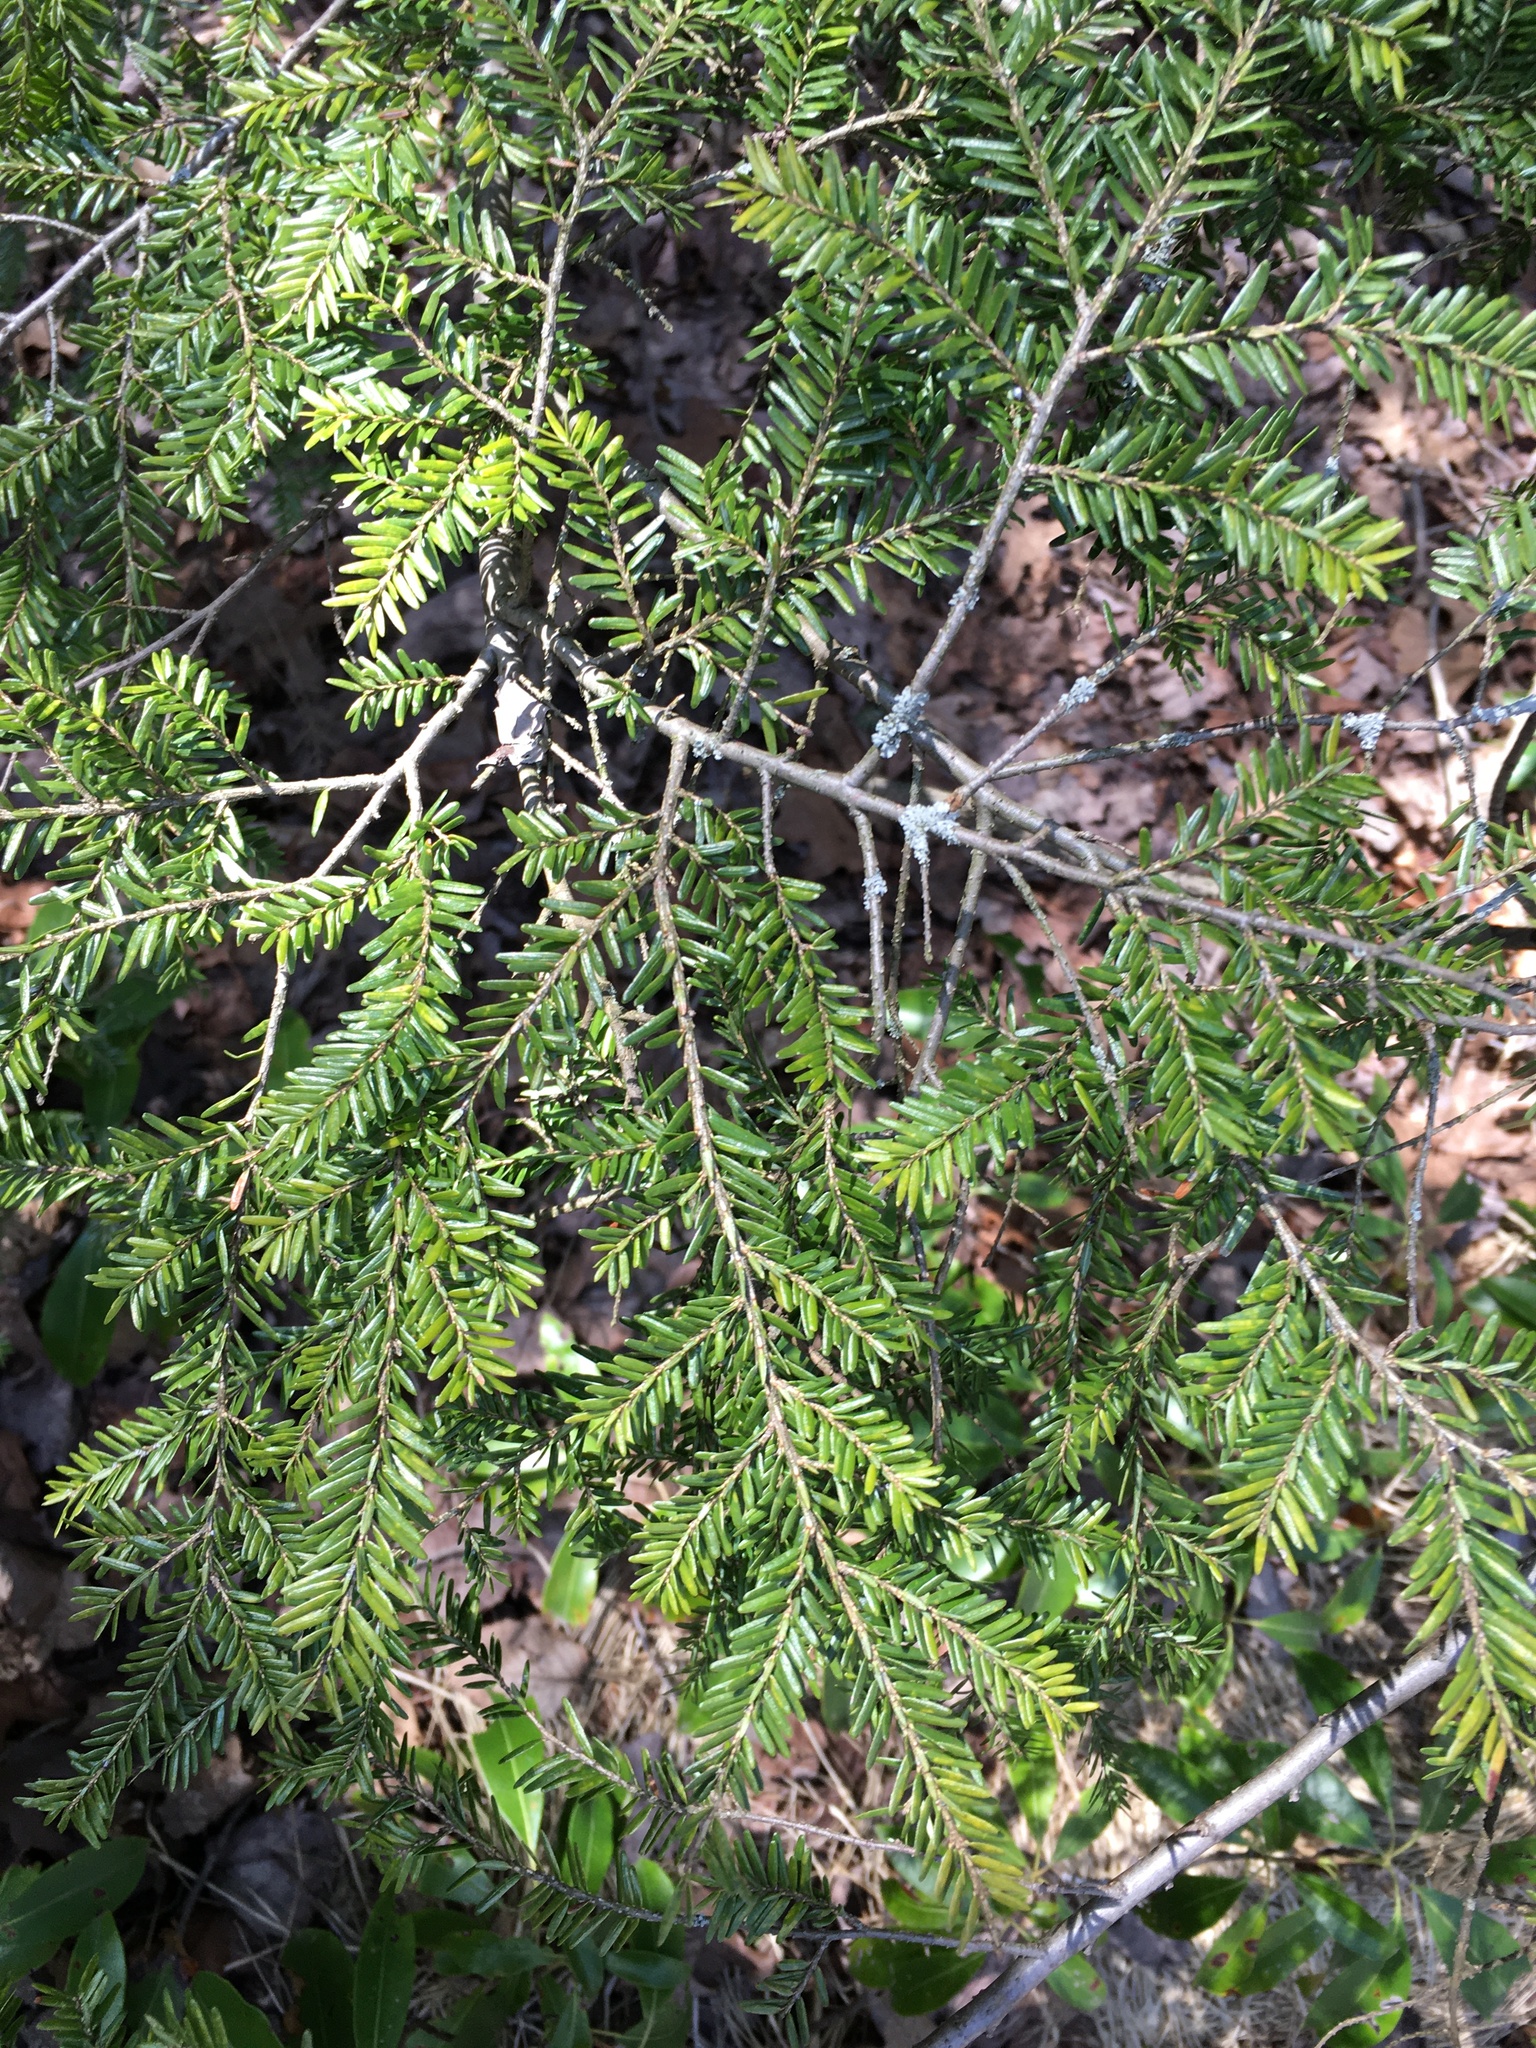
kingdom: Plantae
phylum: Tracheophyta
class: Pinopsida
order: Pinales
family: Pinaceae
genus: Tsuga
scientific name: Tsuga canadensis
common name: Eastern hemlock
